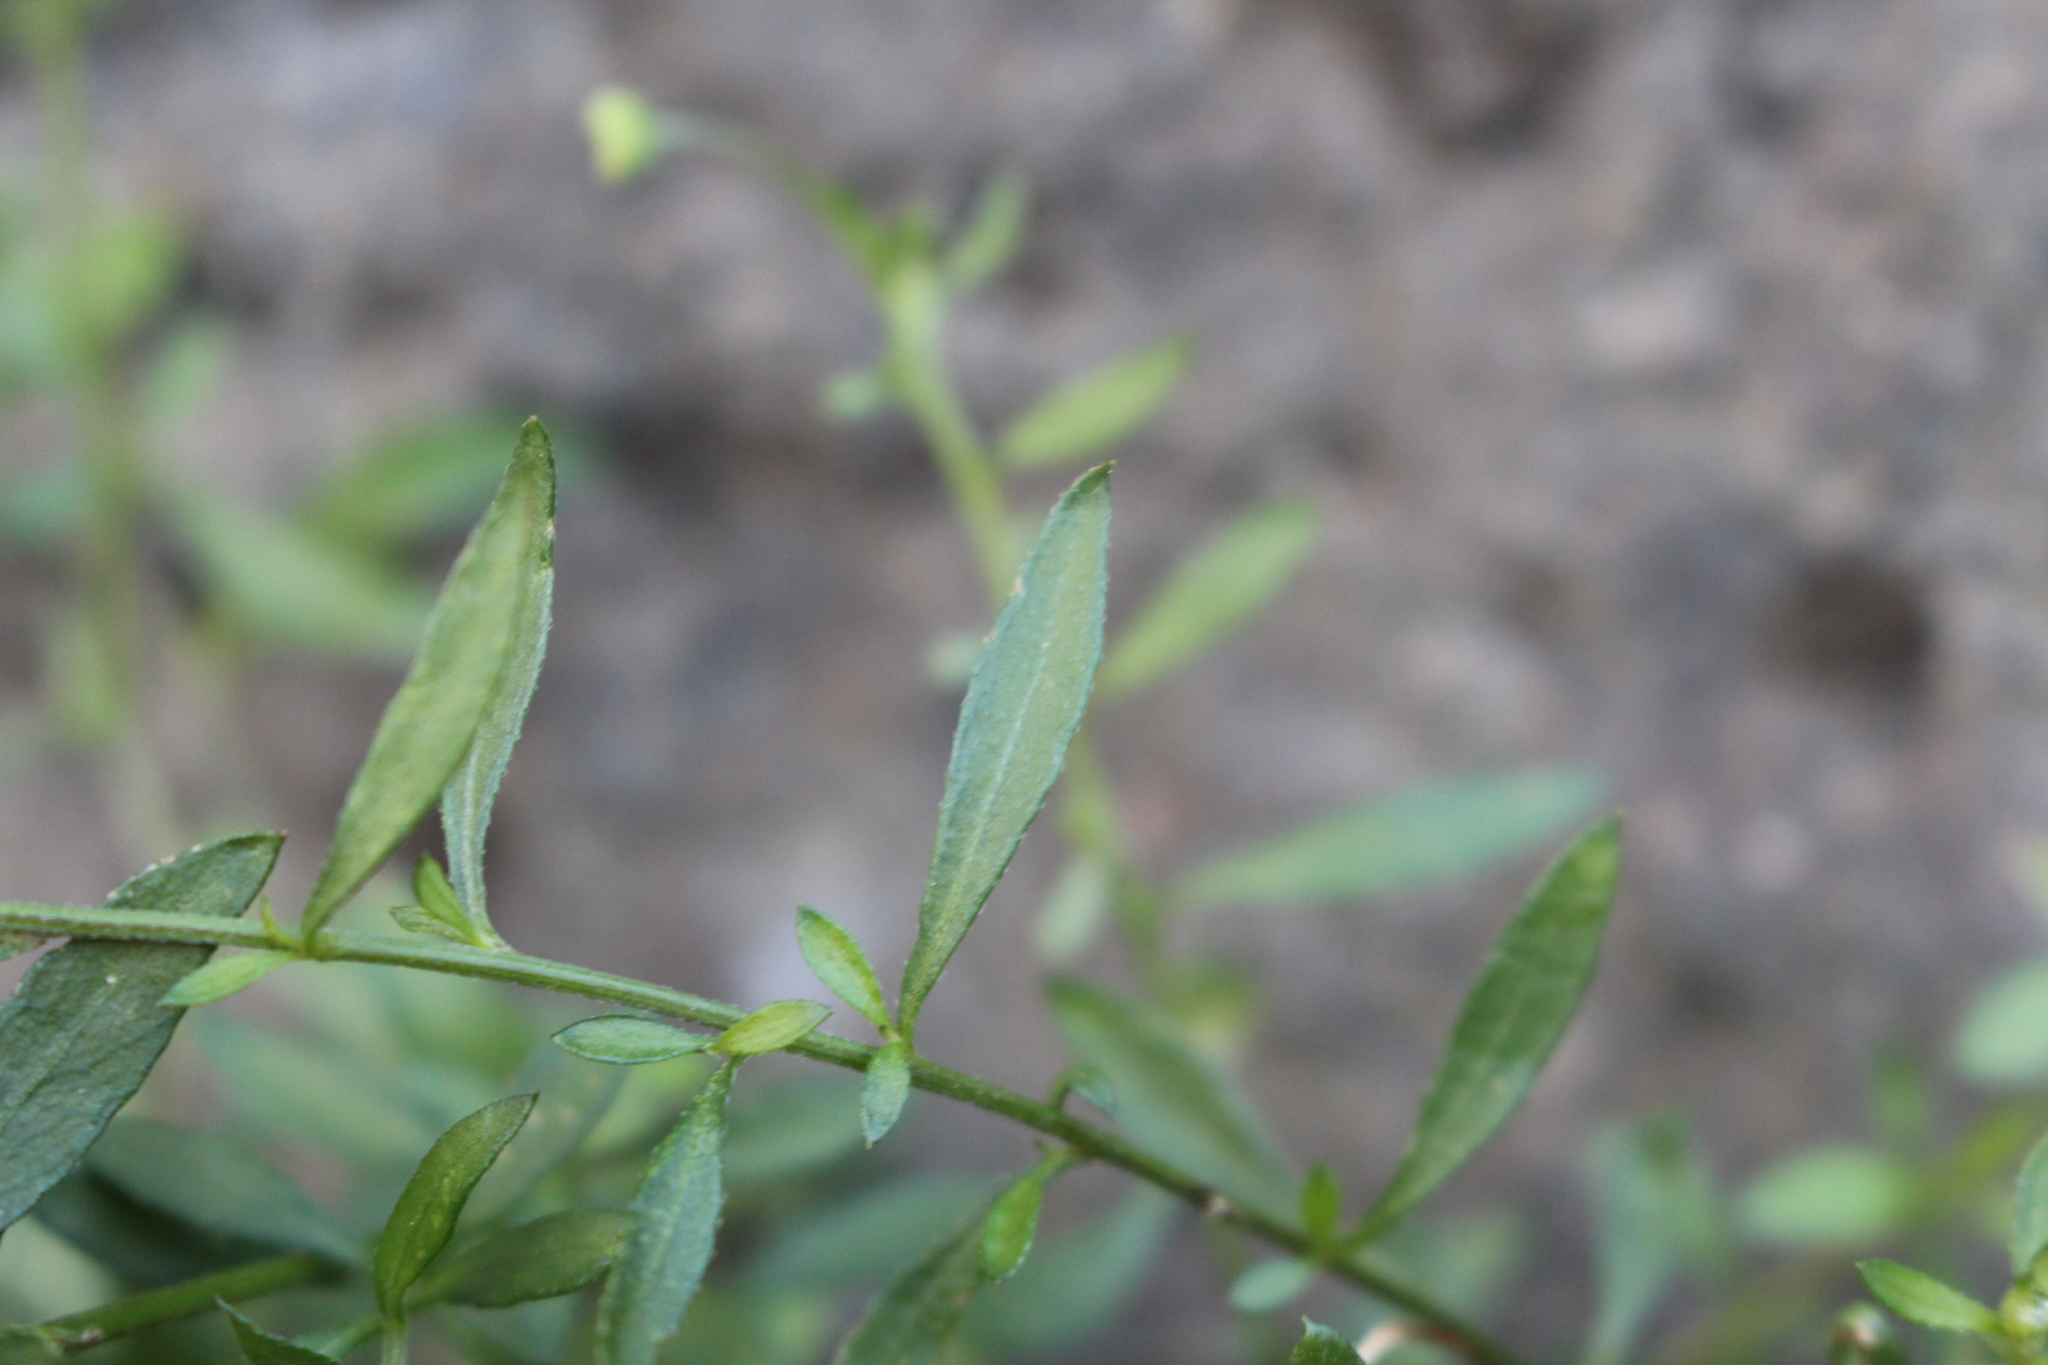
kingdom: Plantae
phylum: Tracheophyta
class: Magnoliopsida
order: Asterales
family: Asteraceae
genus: Erigeron
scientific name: Erigeron karvinskianus
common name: Mexican fleabane
